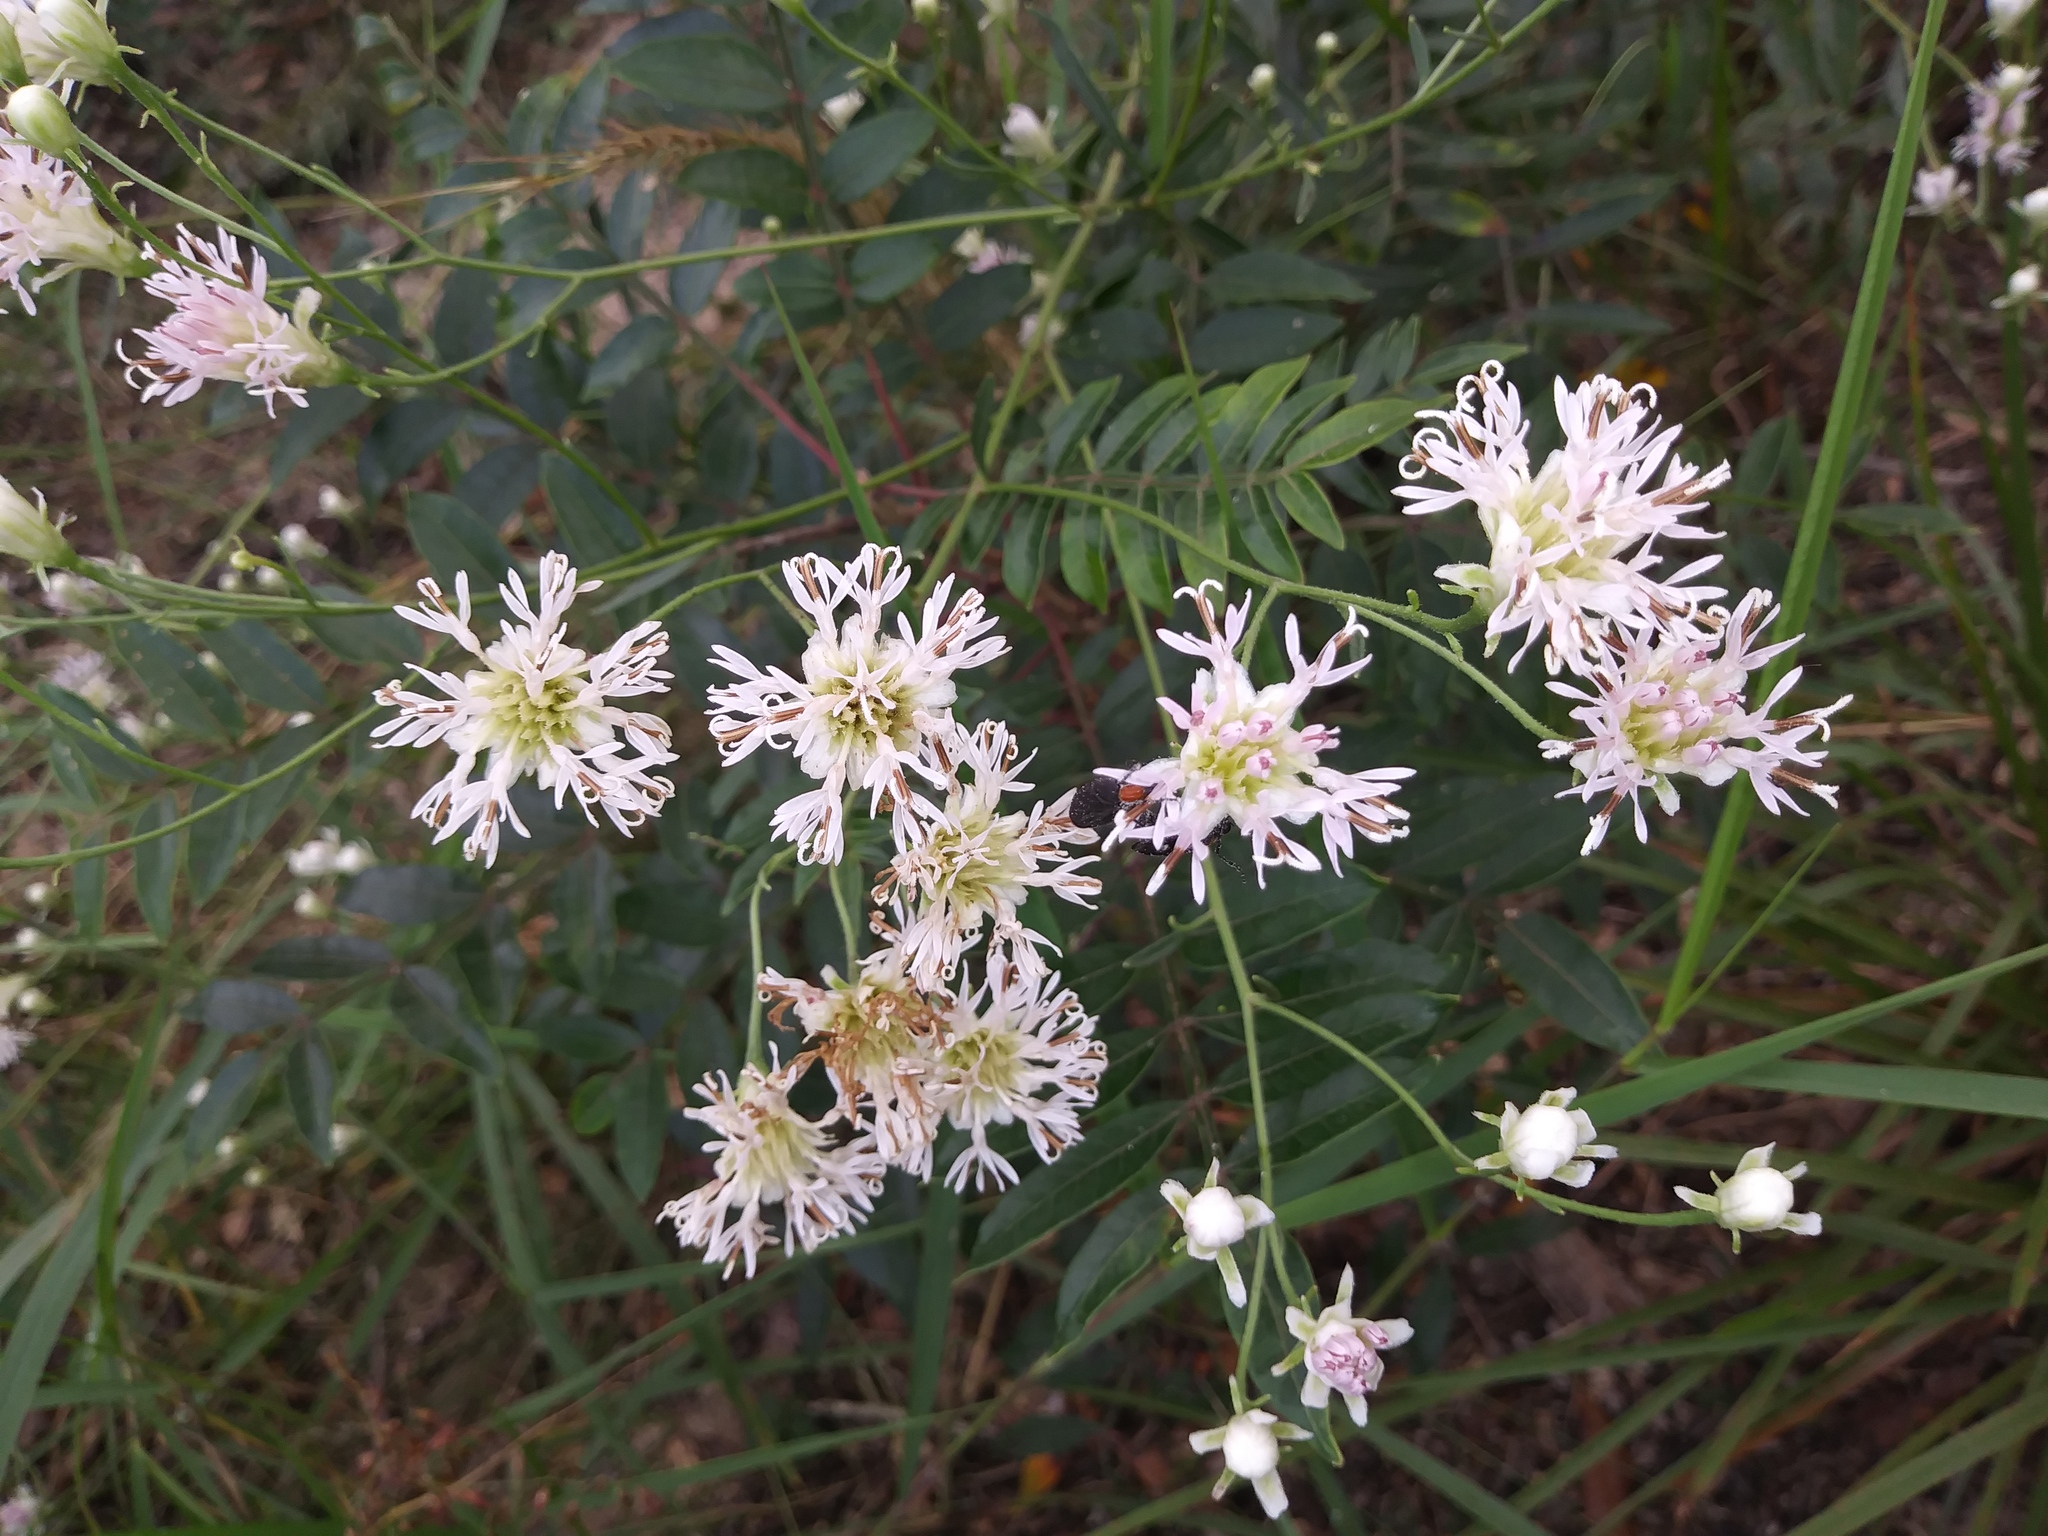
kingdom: Plantae
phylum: Tracheophyta
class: Magnoliopsida
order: Asterales
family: Asteraceae
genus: Palafoxia
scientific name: Palafoxia integrifolia
